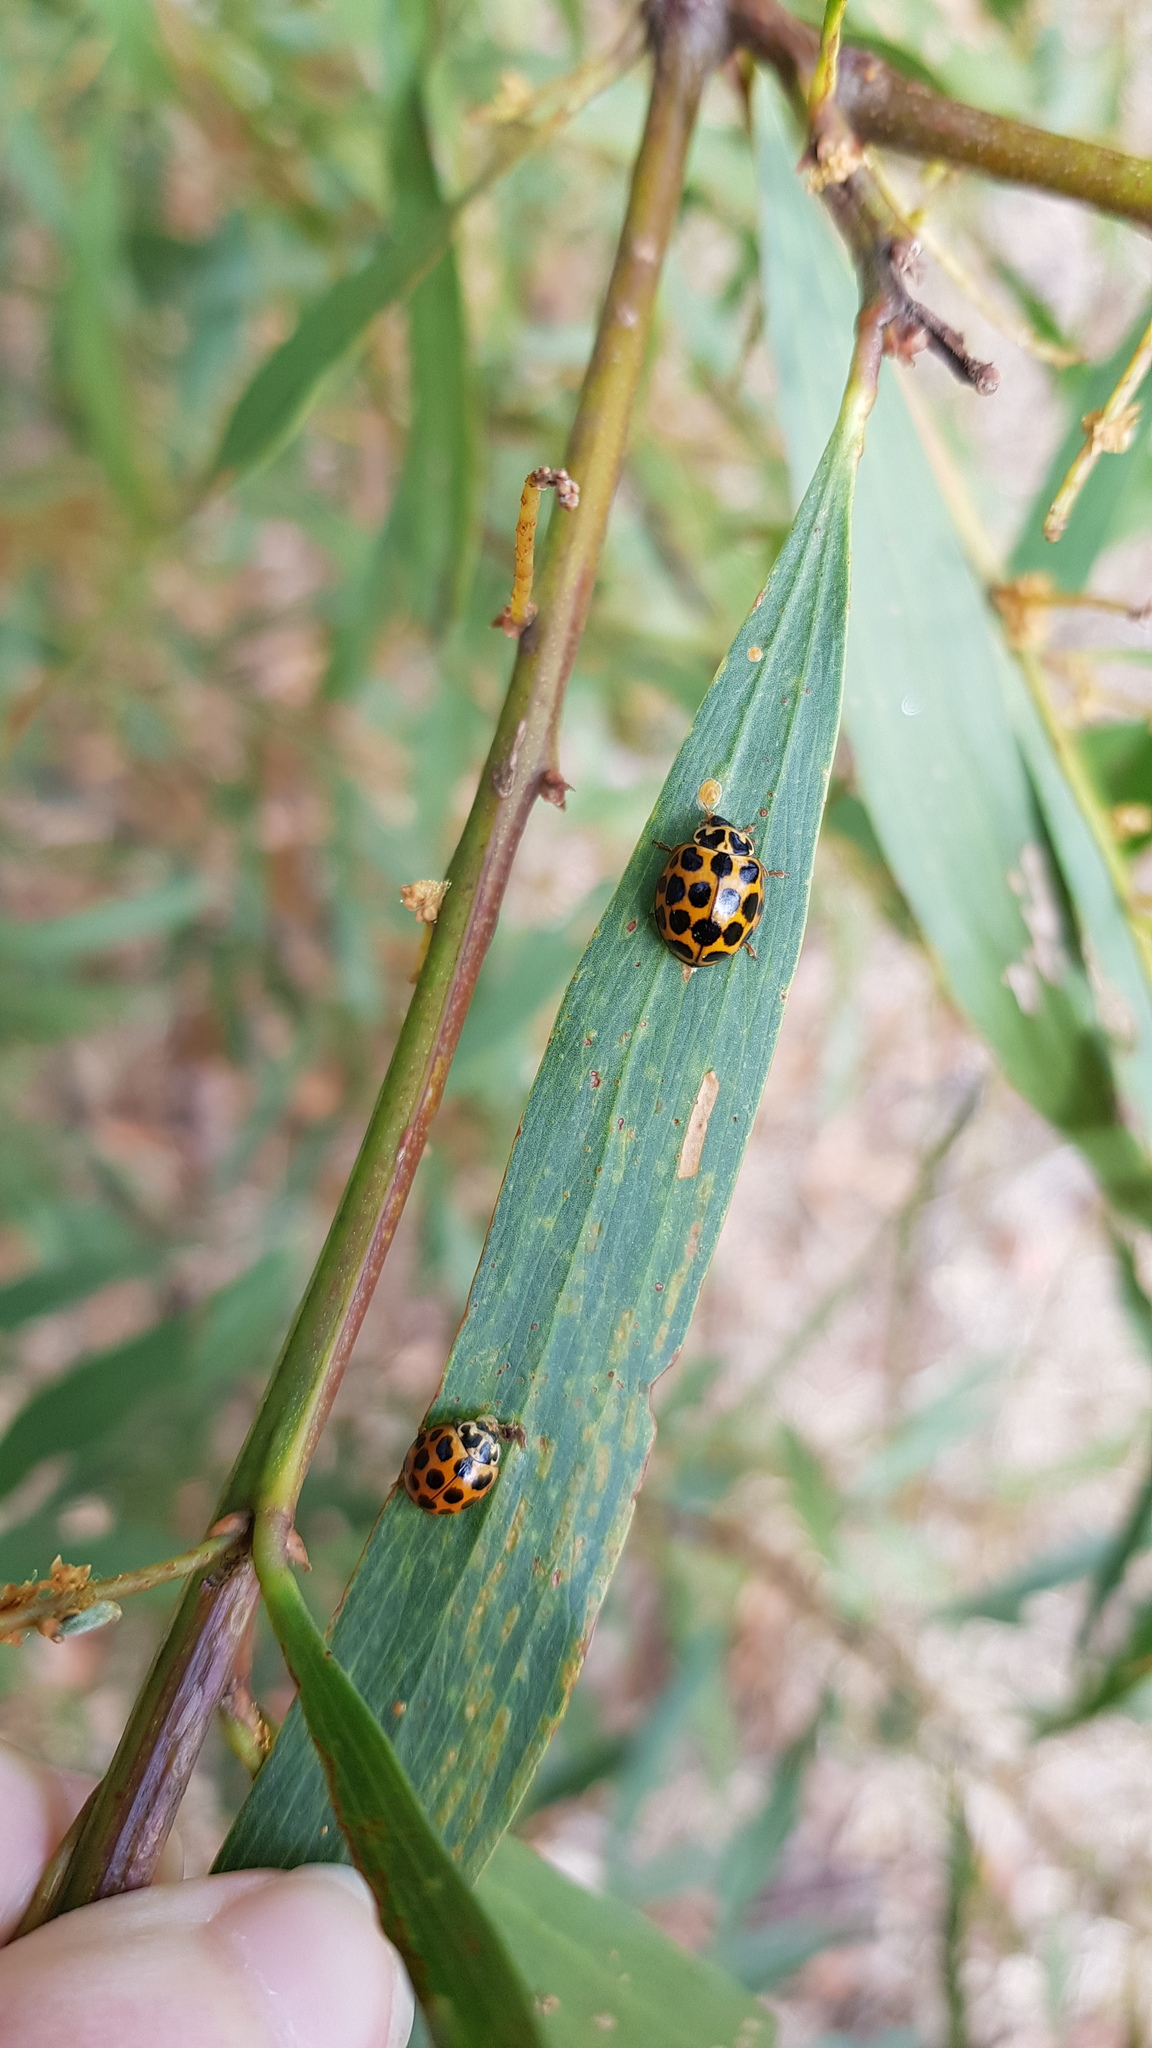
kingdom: Animalia
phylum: Arthropoda
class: Insecta
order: Coleoptera
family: Coccinellidae
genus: Harmonia
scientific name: Harmonia conformis
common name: Common spotted ladybird beetle
